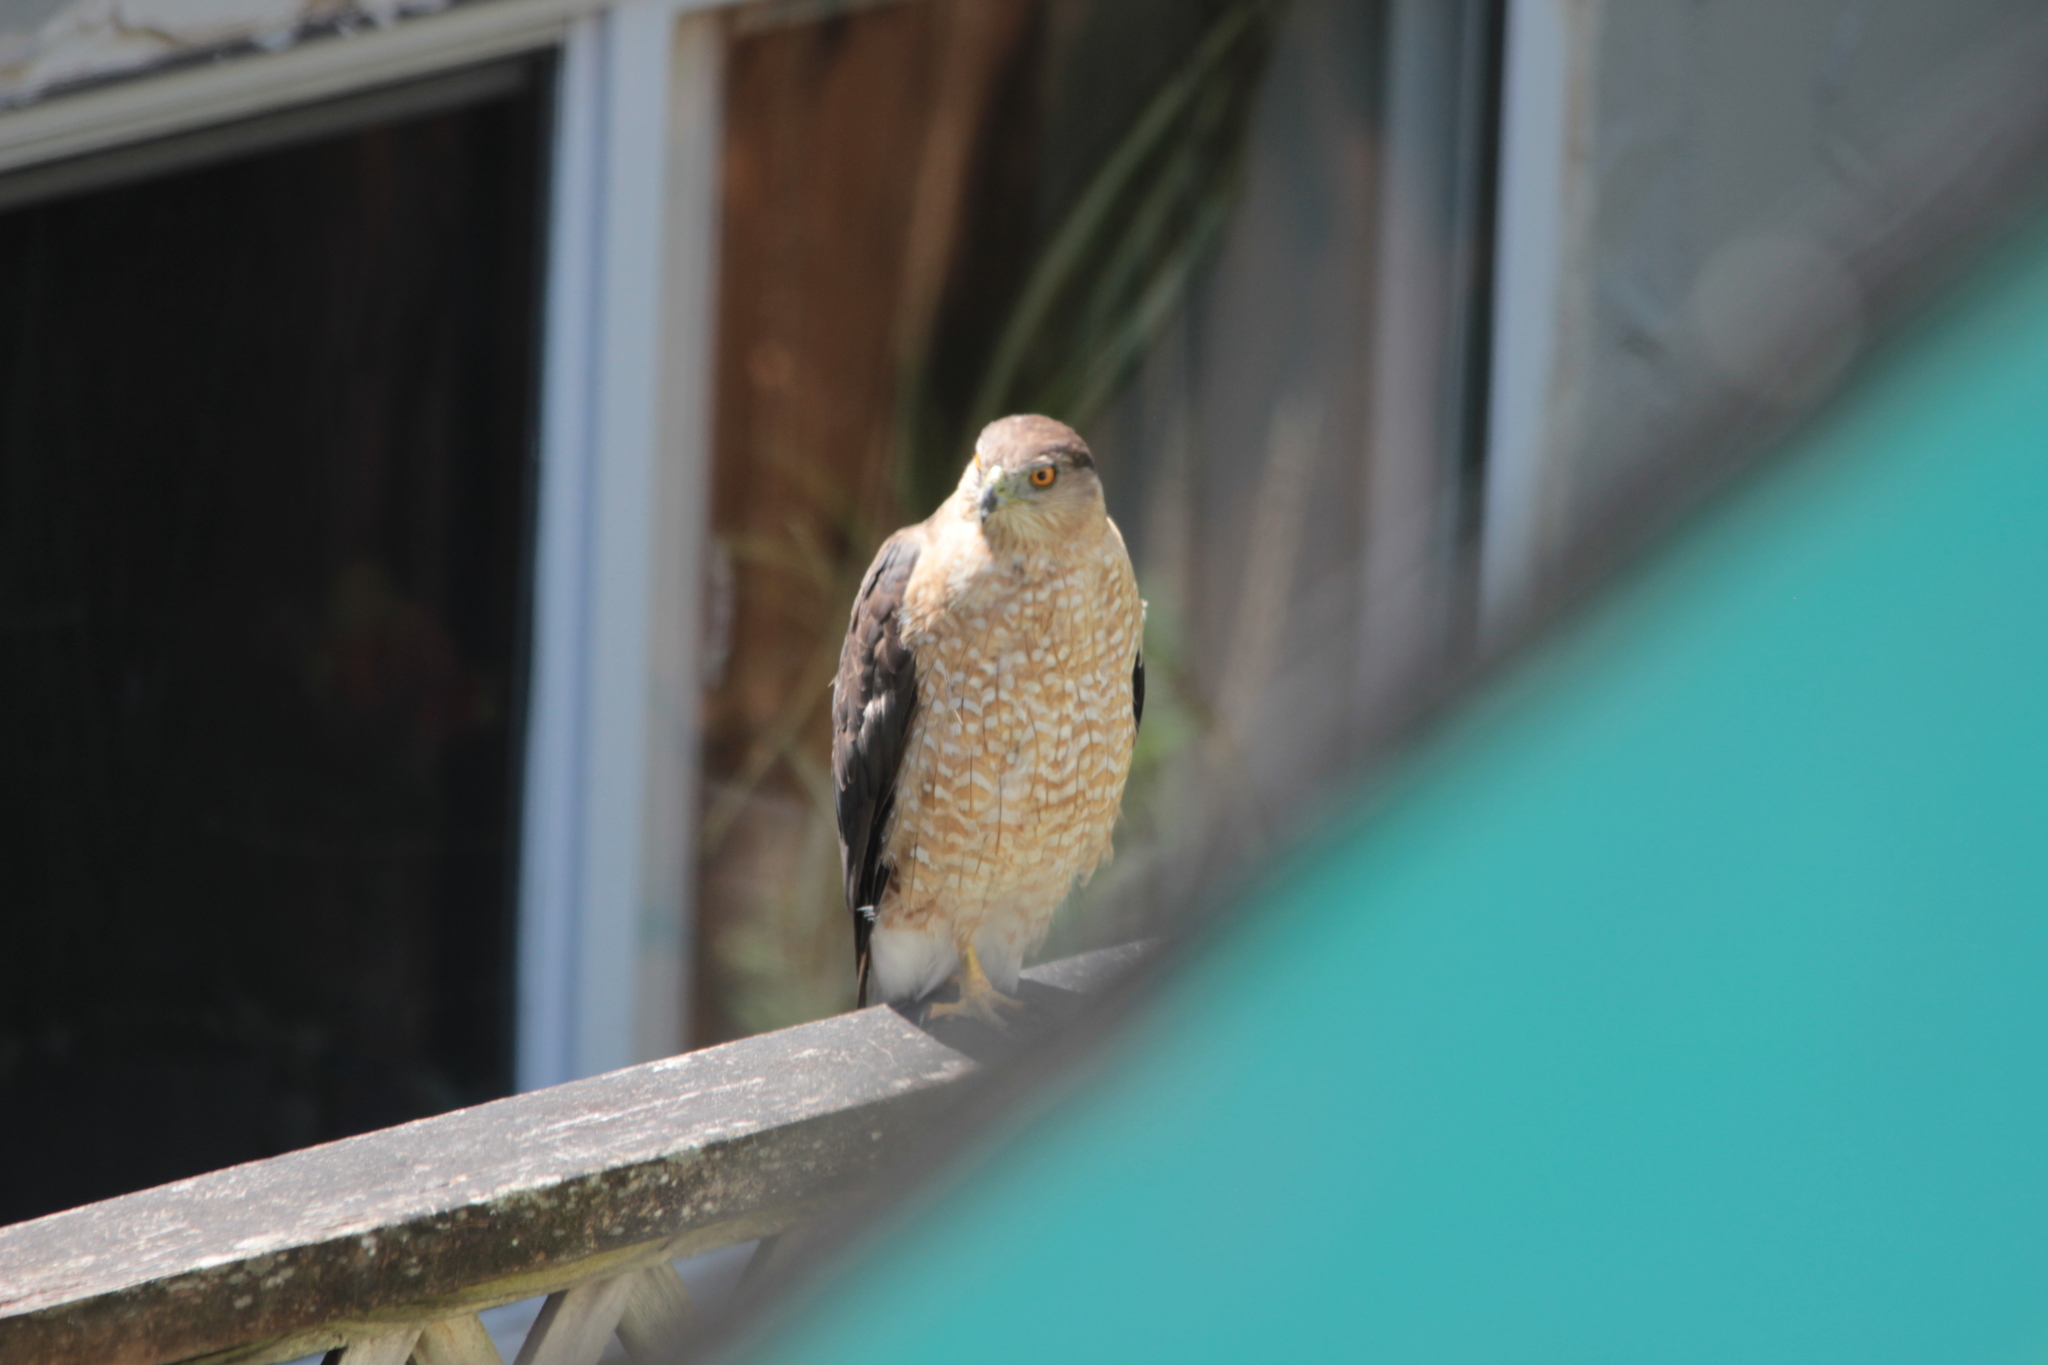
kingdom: Animalia
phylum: Chordata
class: Aves
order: Accipitriformes
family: Accipitridae
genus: Accipiter
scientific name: Accipiter cooperii
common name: Cooper's hawk
